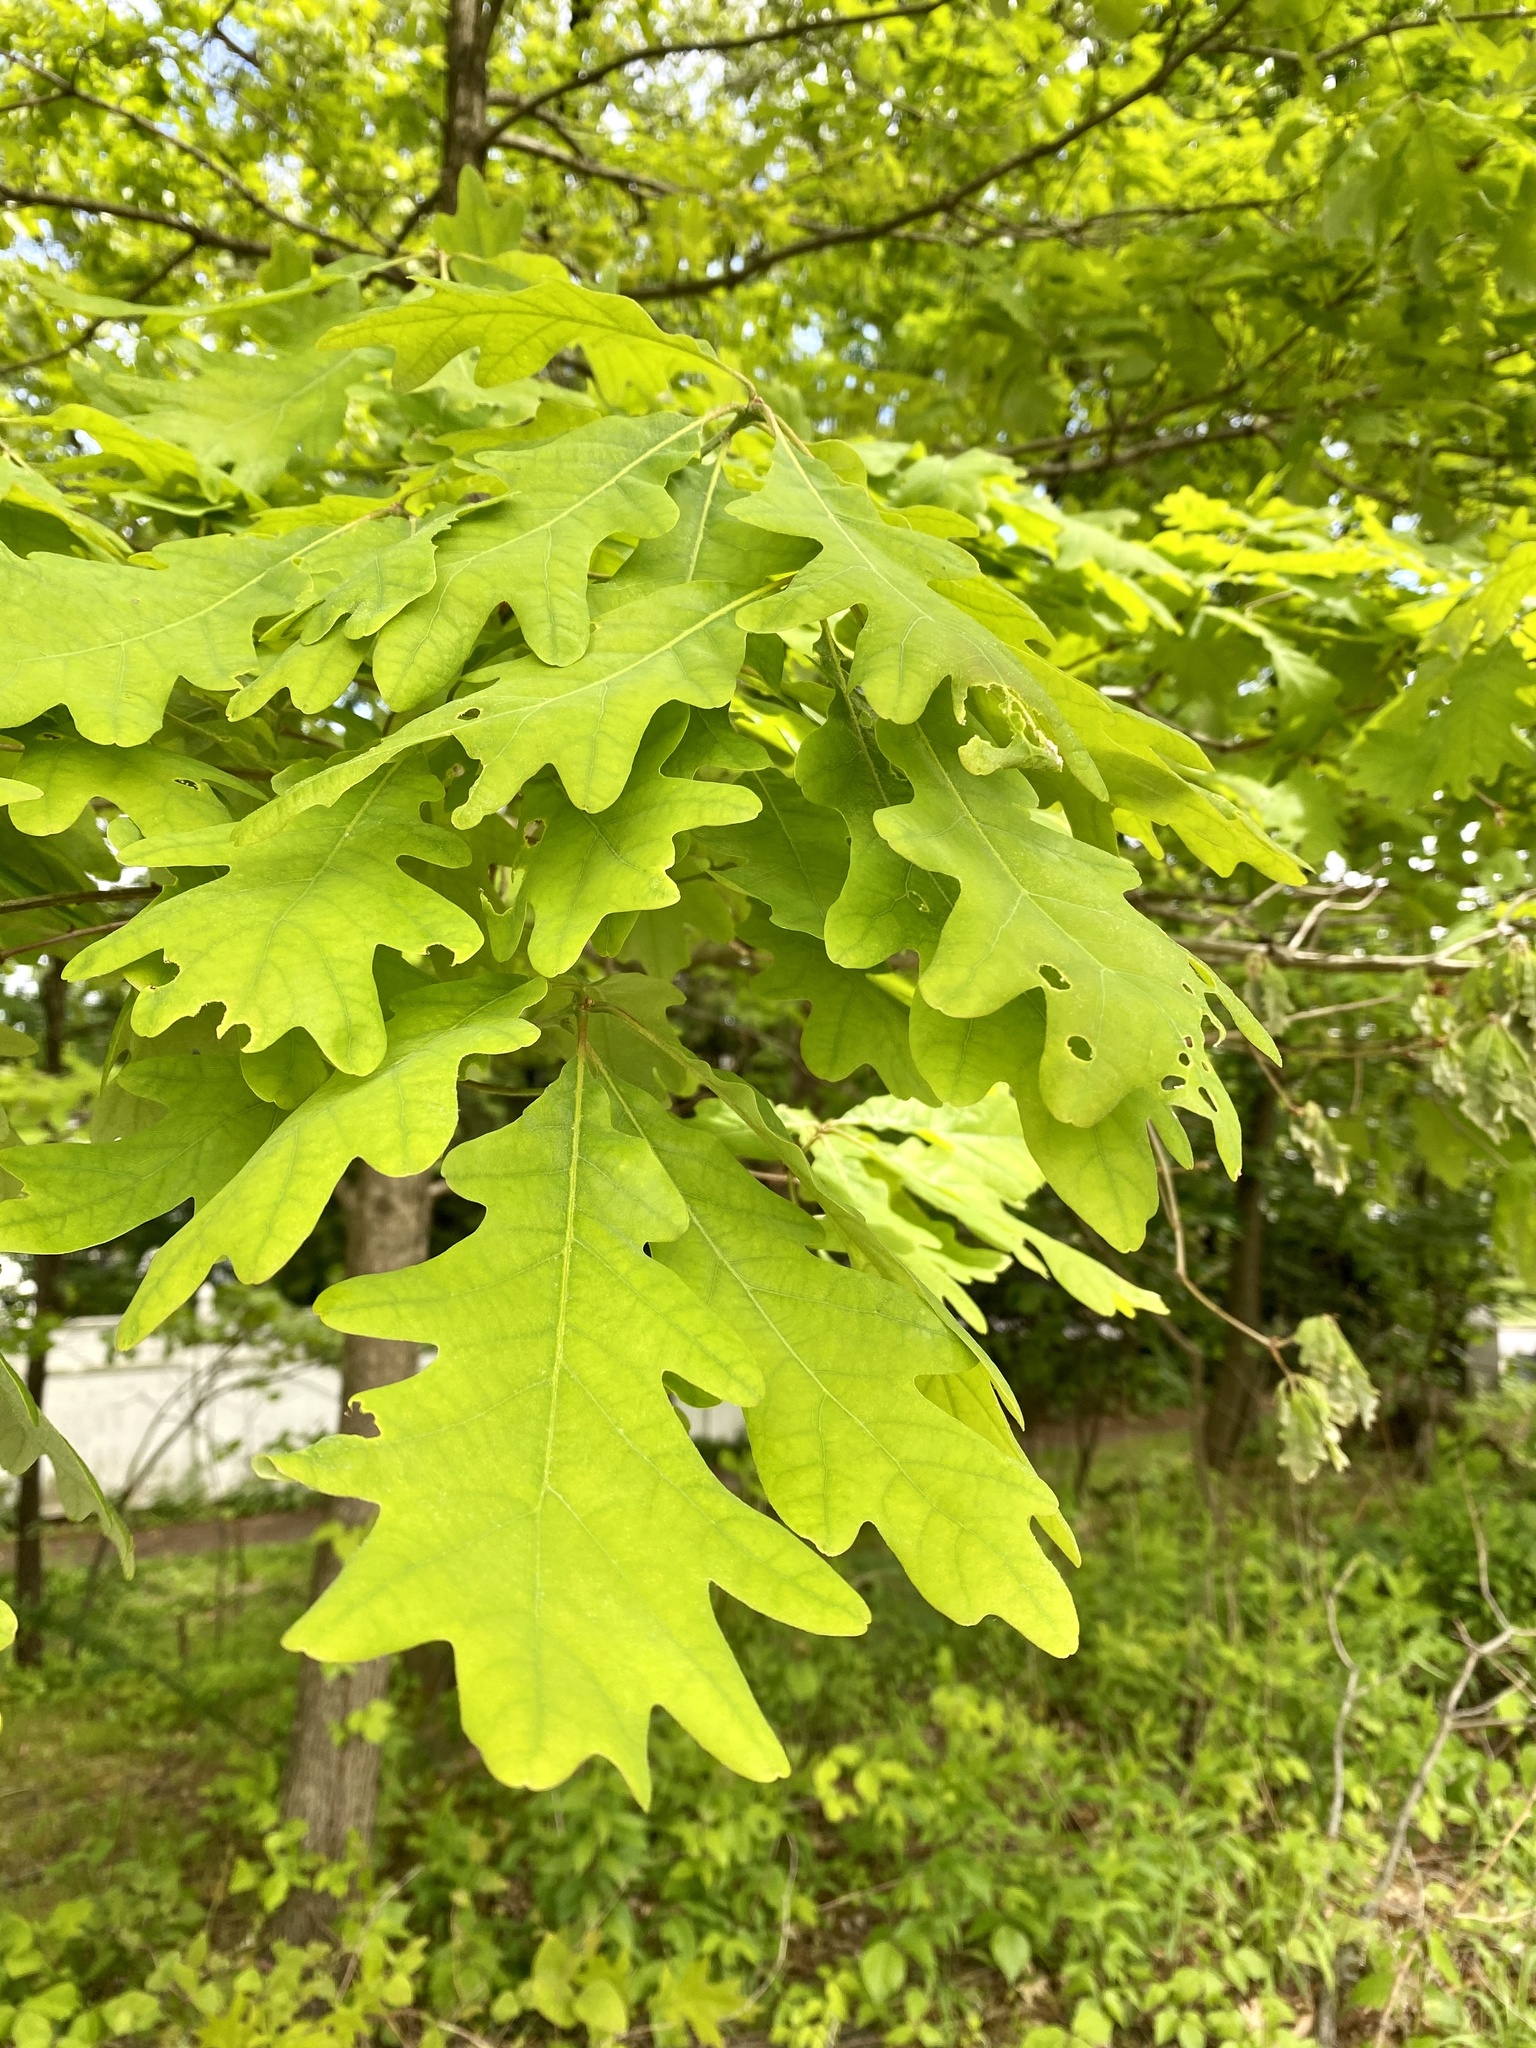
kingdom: Plantae
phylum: Tracheophyta
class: Magnoliopsida
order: Fagales
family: Fagaceae
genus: Quercus
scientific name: Quercus alba
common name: White oak
